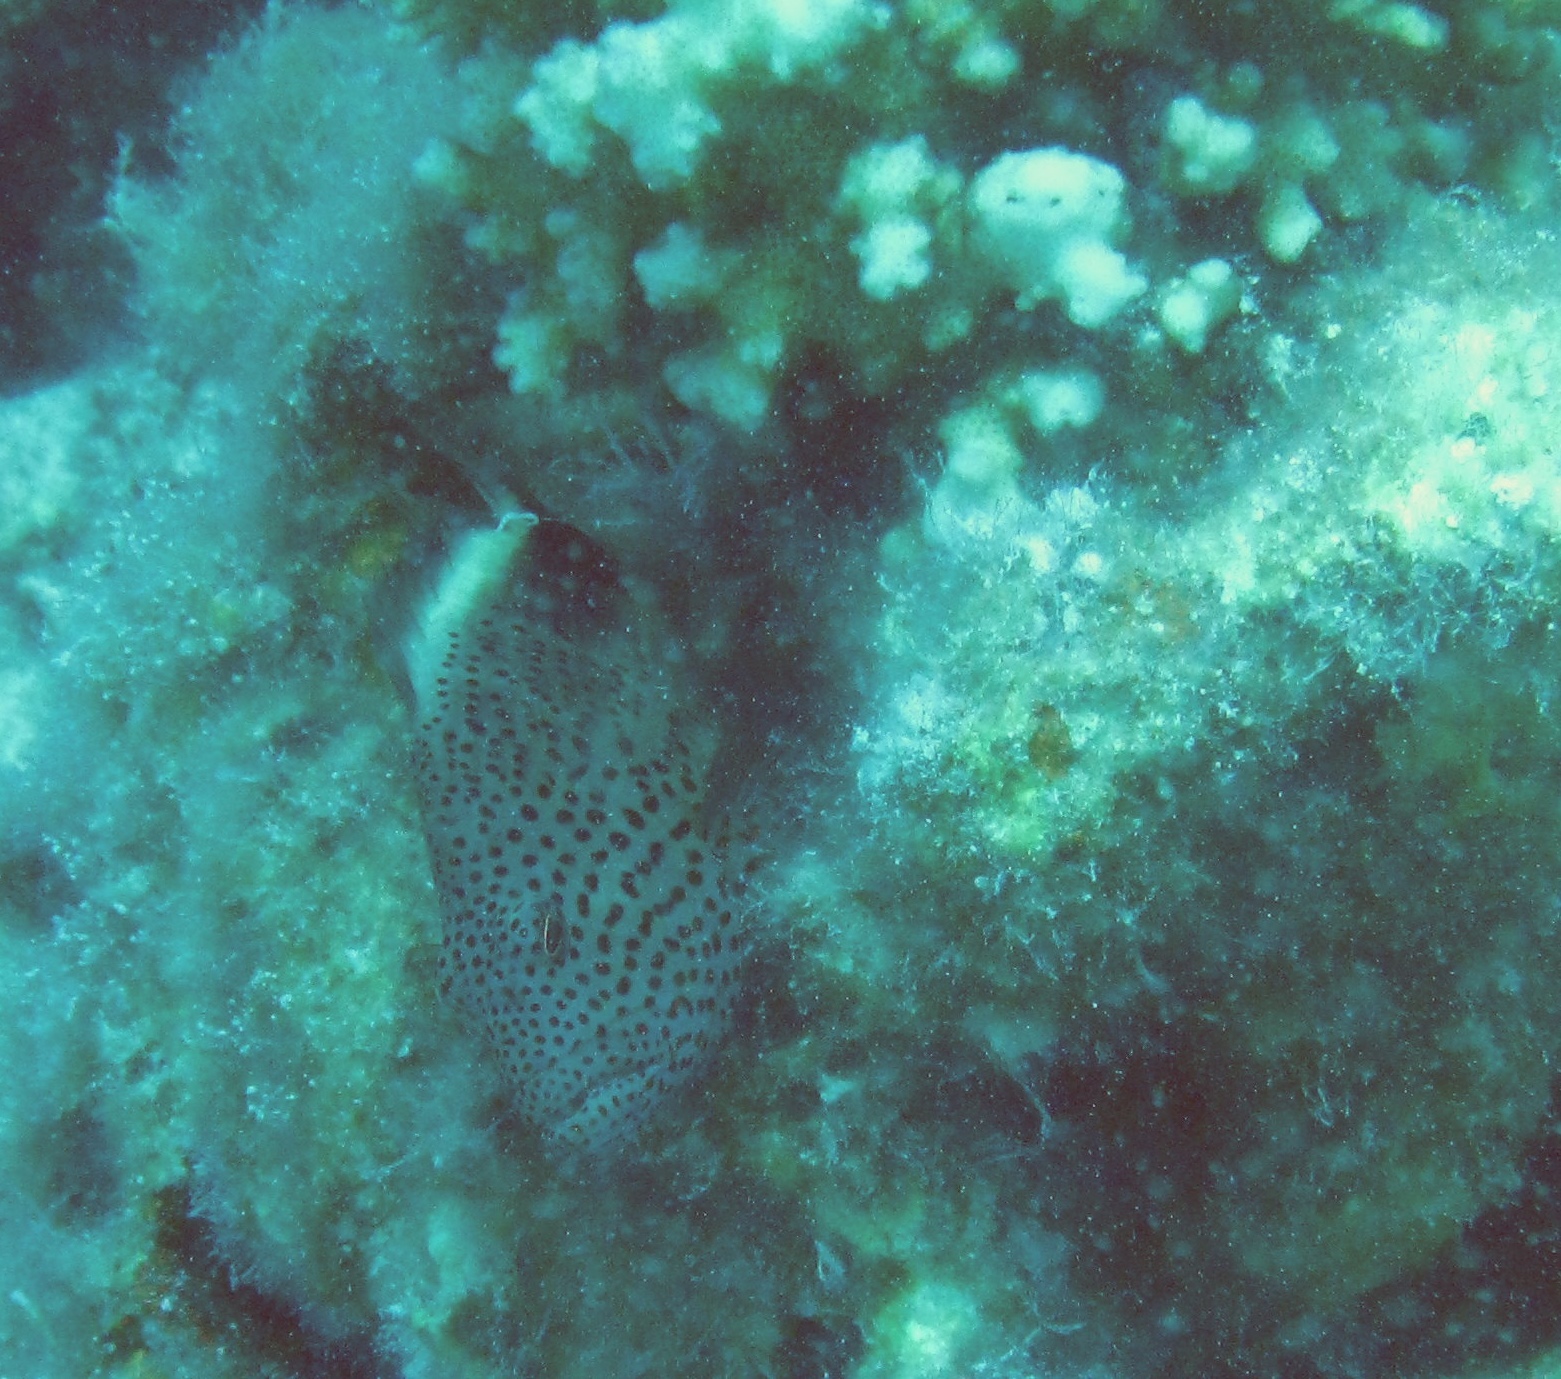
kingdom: Animalia
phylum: Chordata
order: Perciformes
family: Cirrhitidae
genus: Paracirrhites
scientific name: Paracirrhites forsteri
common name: Freckled hawkfish
